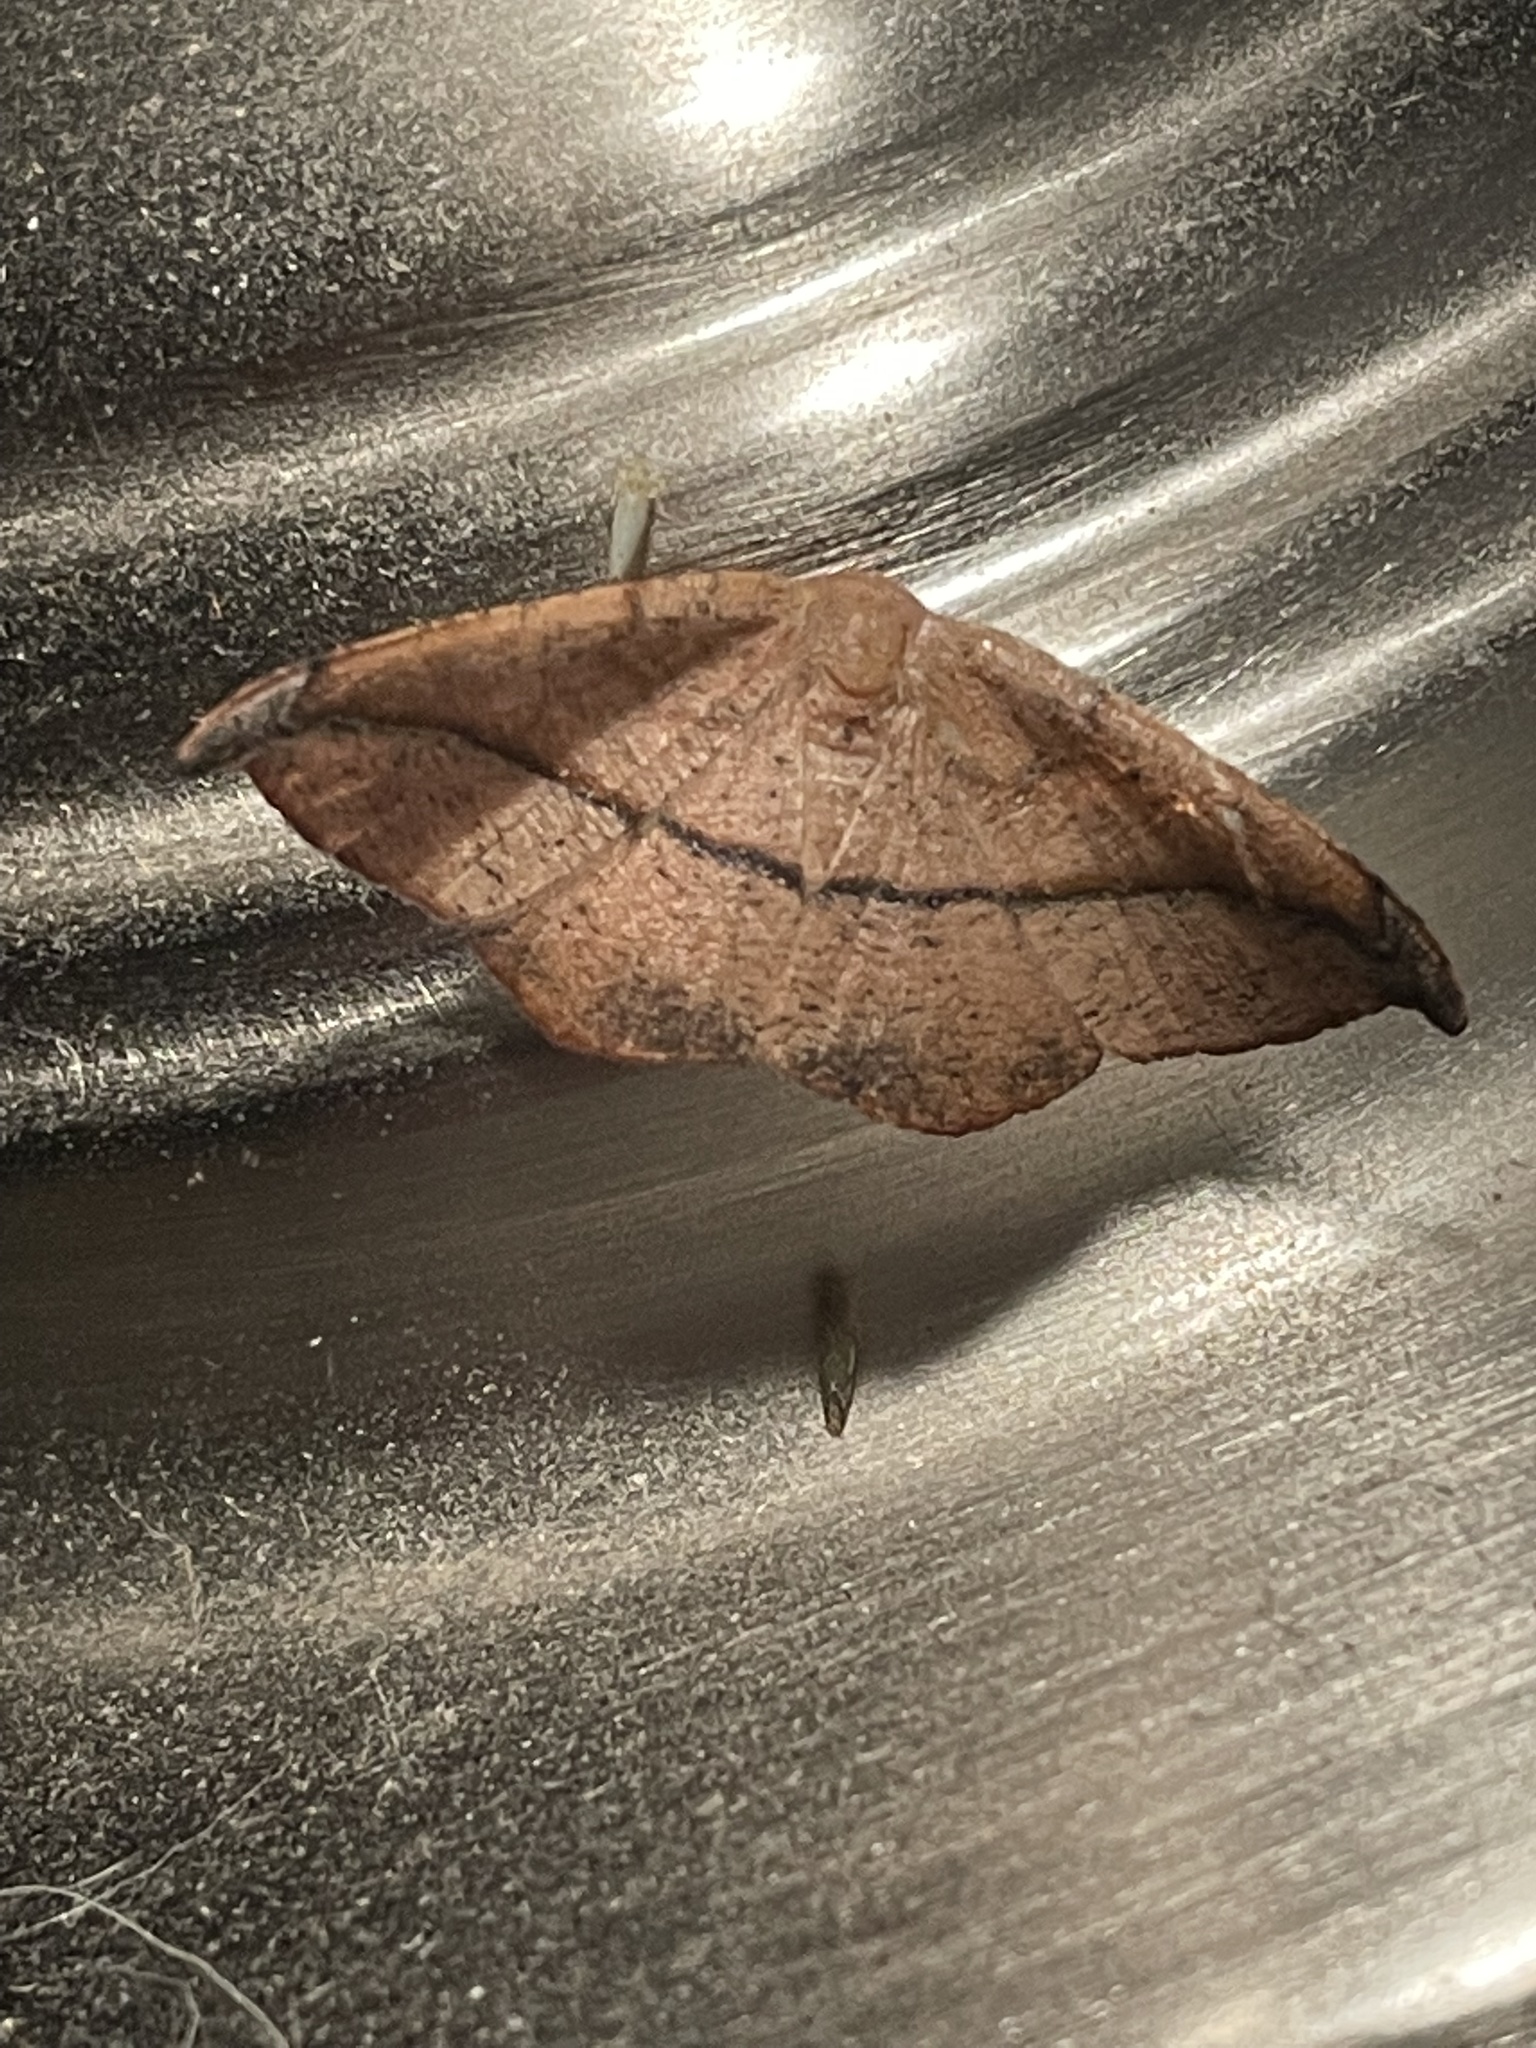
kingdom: Animalia
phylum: Arthropoda
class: Insecta
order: Lepidoptera
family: Geometridae
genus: Patalene
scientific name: Patalene olyzonaria
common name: Juniper geometer moth
